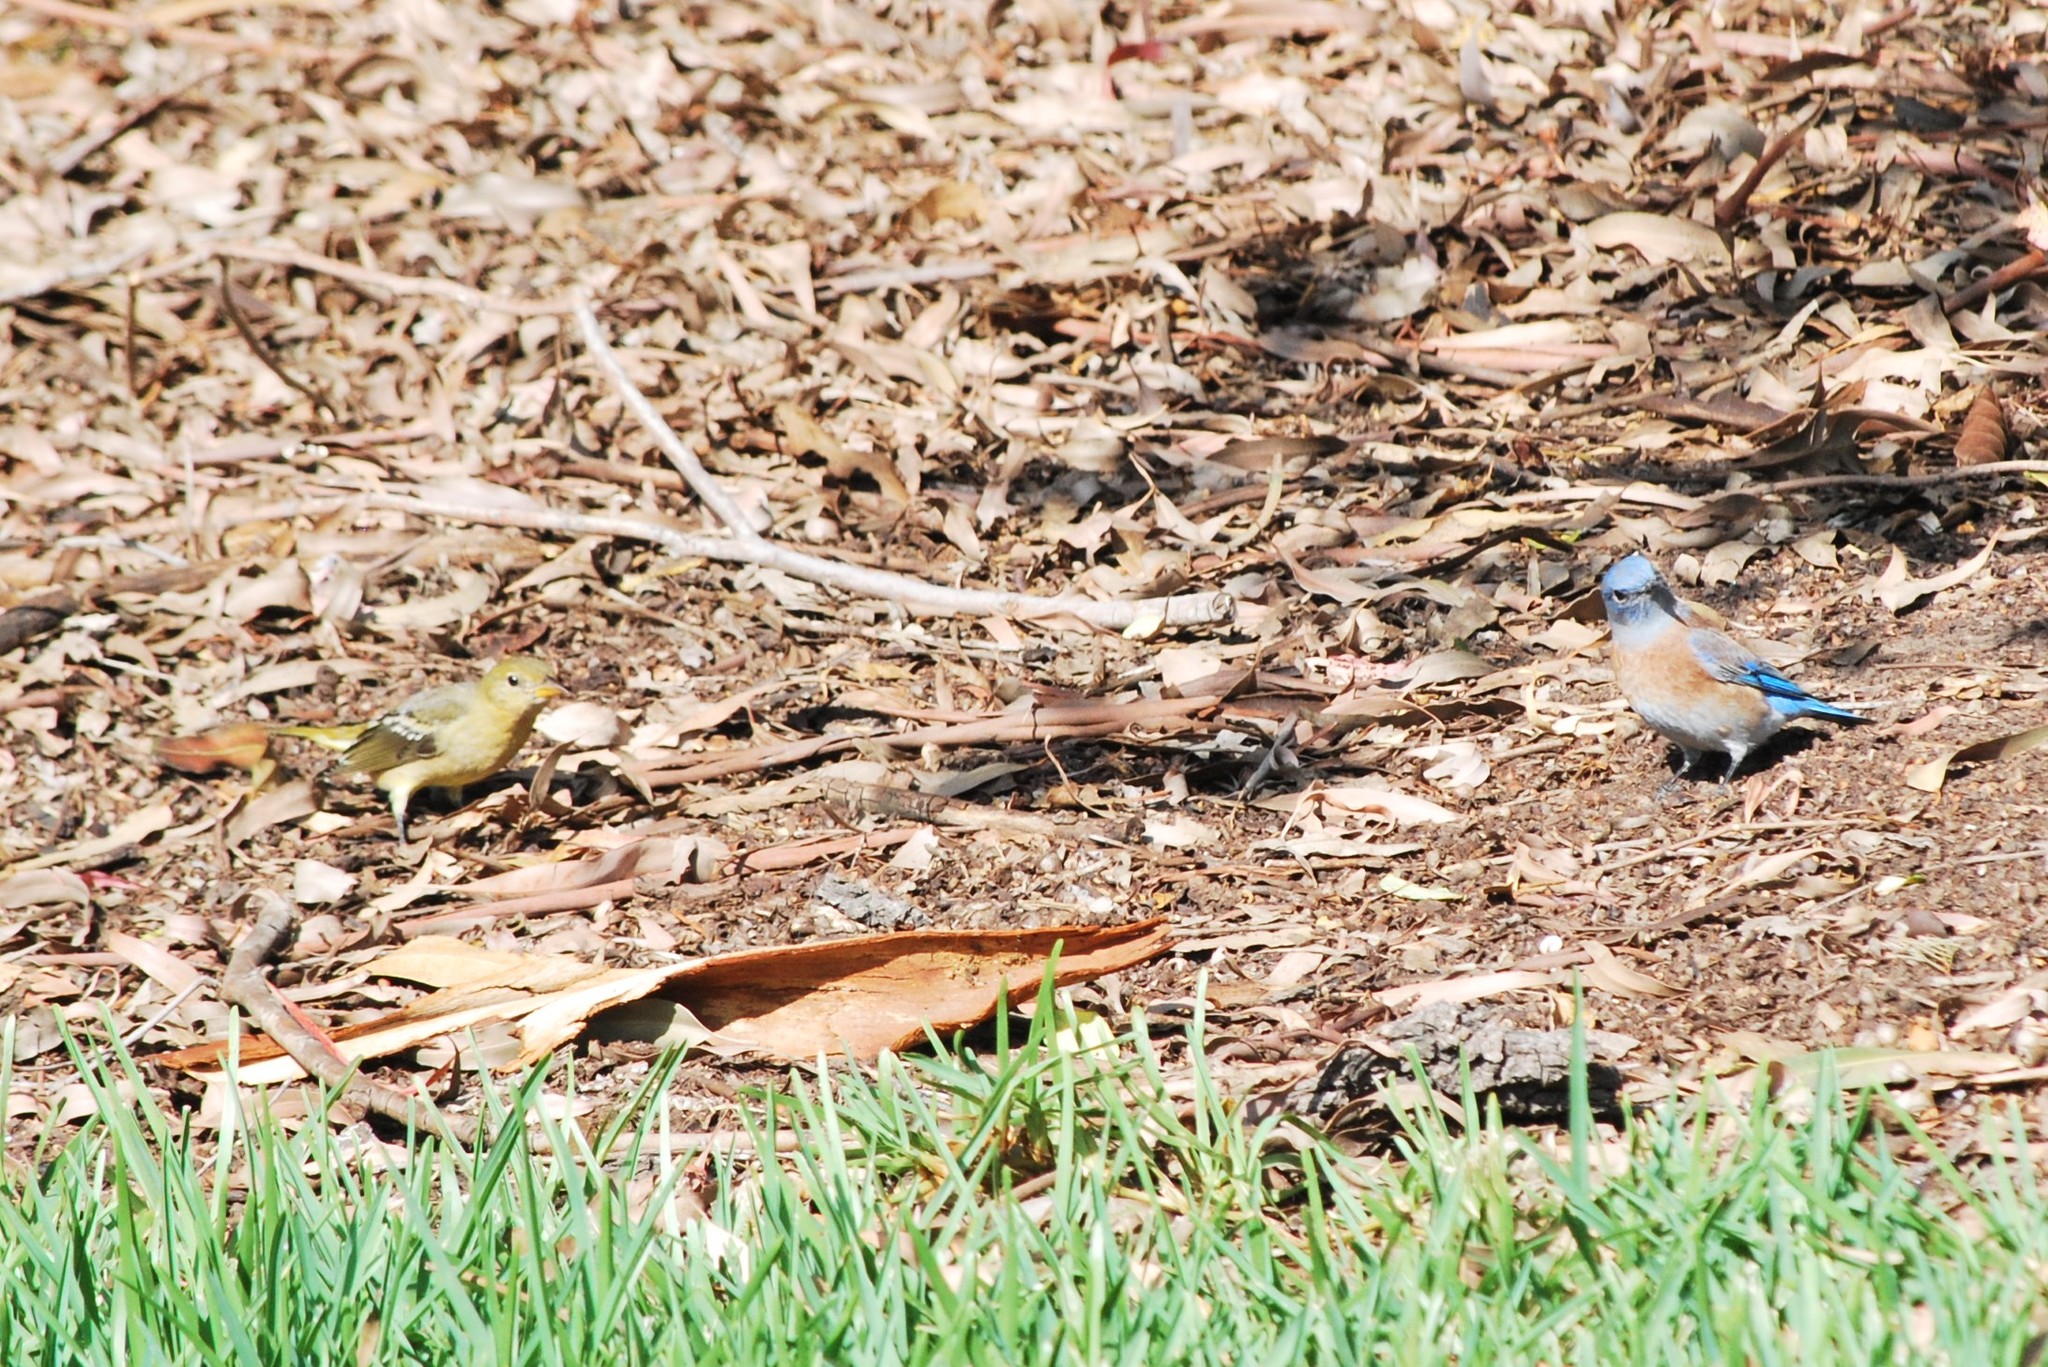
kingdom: Animalia
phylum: Chordata
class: Aves
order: Passeriformes
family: Cardinalidae
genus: Piranga
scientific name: Piranga ludoviciana
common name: Western tanager
